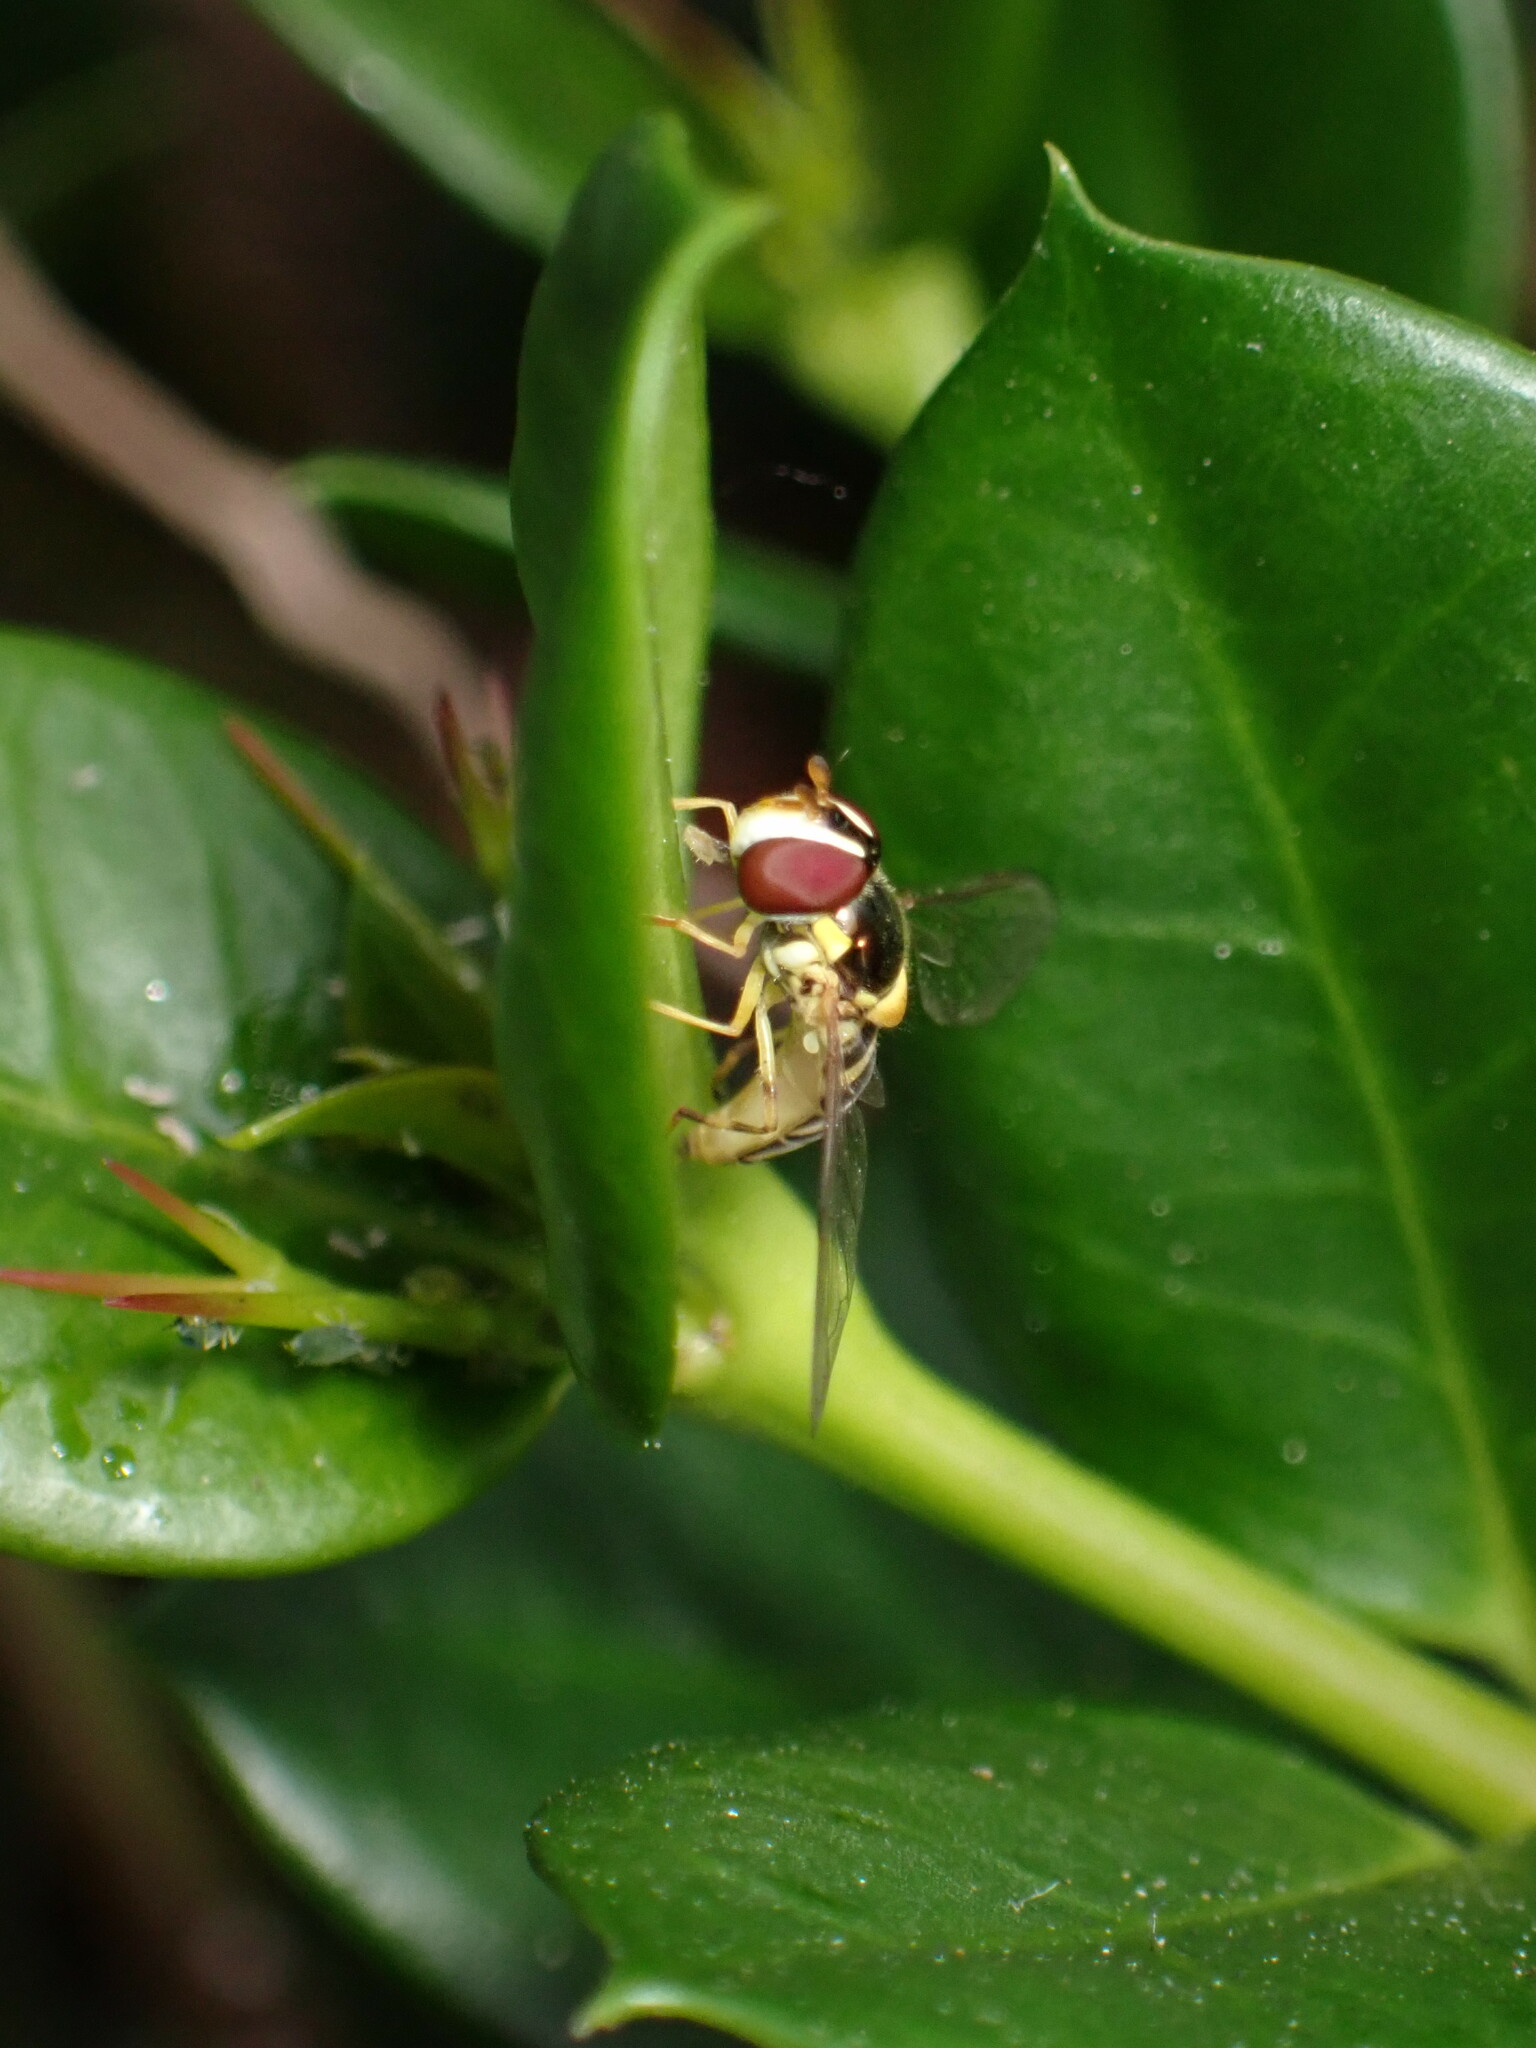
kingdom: Animalia
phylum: Arthropoda
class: Insecta
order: Diptera
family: Syrphidae
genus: Allograpta
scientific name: Allograpta obliqua
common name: Common oblique syrphid
